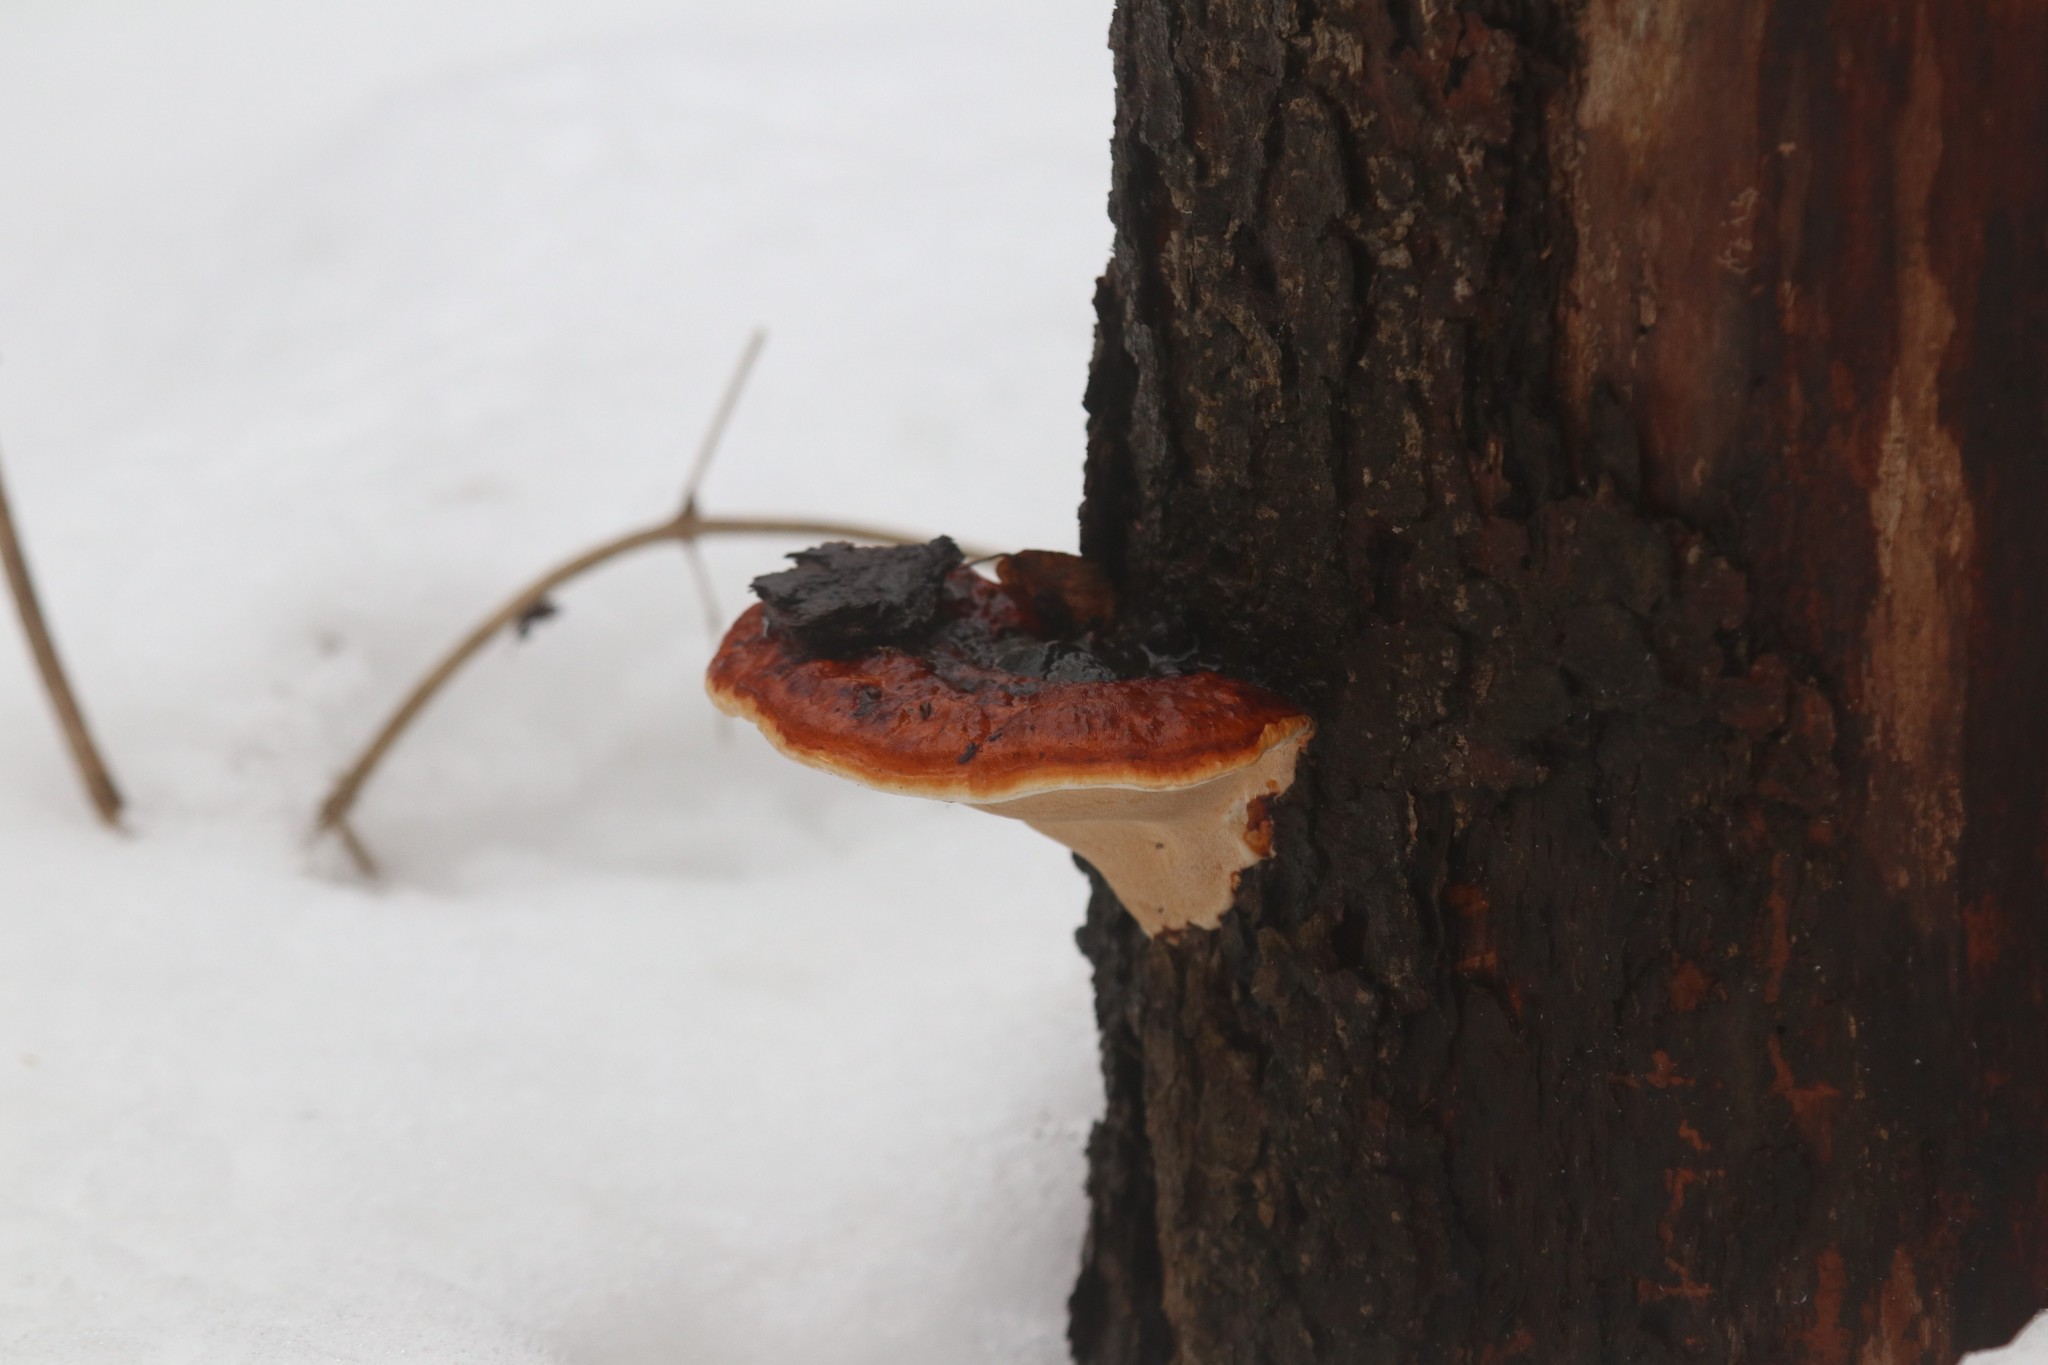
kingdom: Fungi
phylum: Basidiomycota
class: Agaricomycetes
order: Polyporales
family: Fomitopsidaceae
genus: Fomitopsis
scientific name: Fomitopsis pinicola
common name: Red-belted bracket
